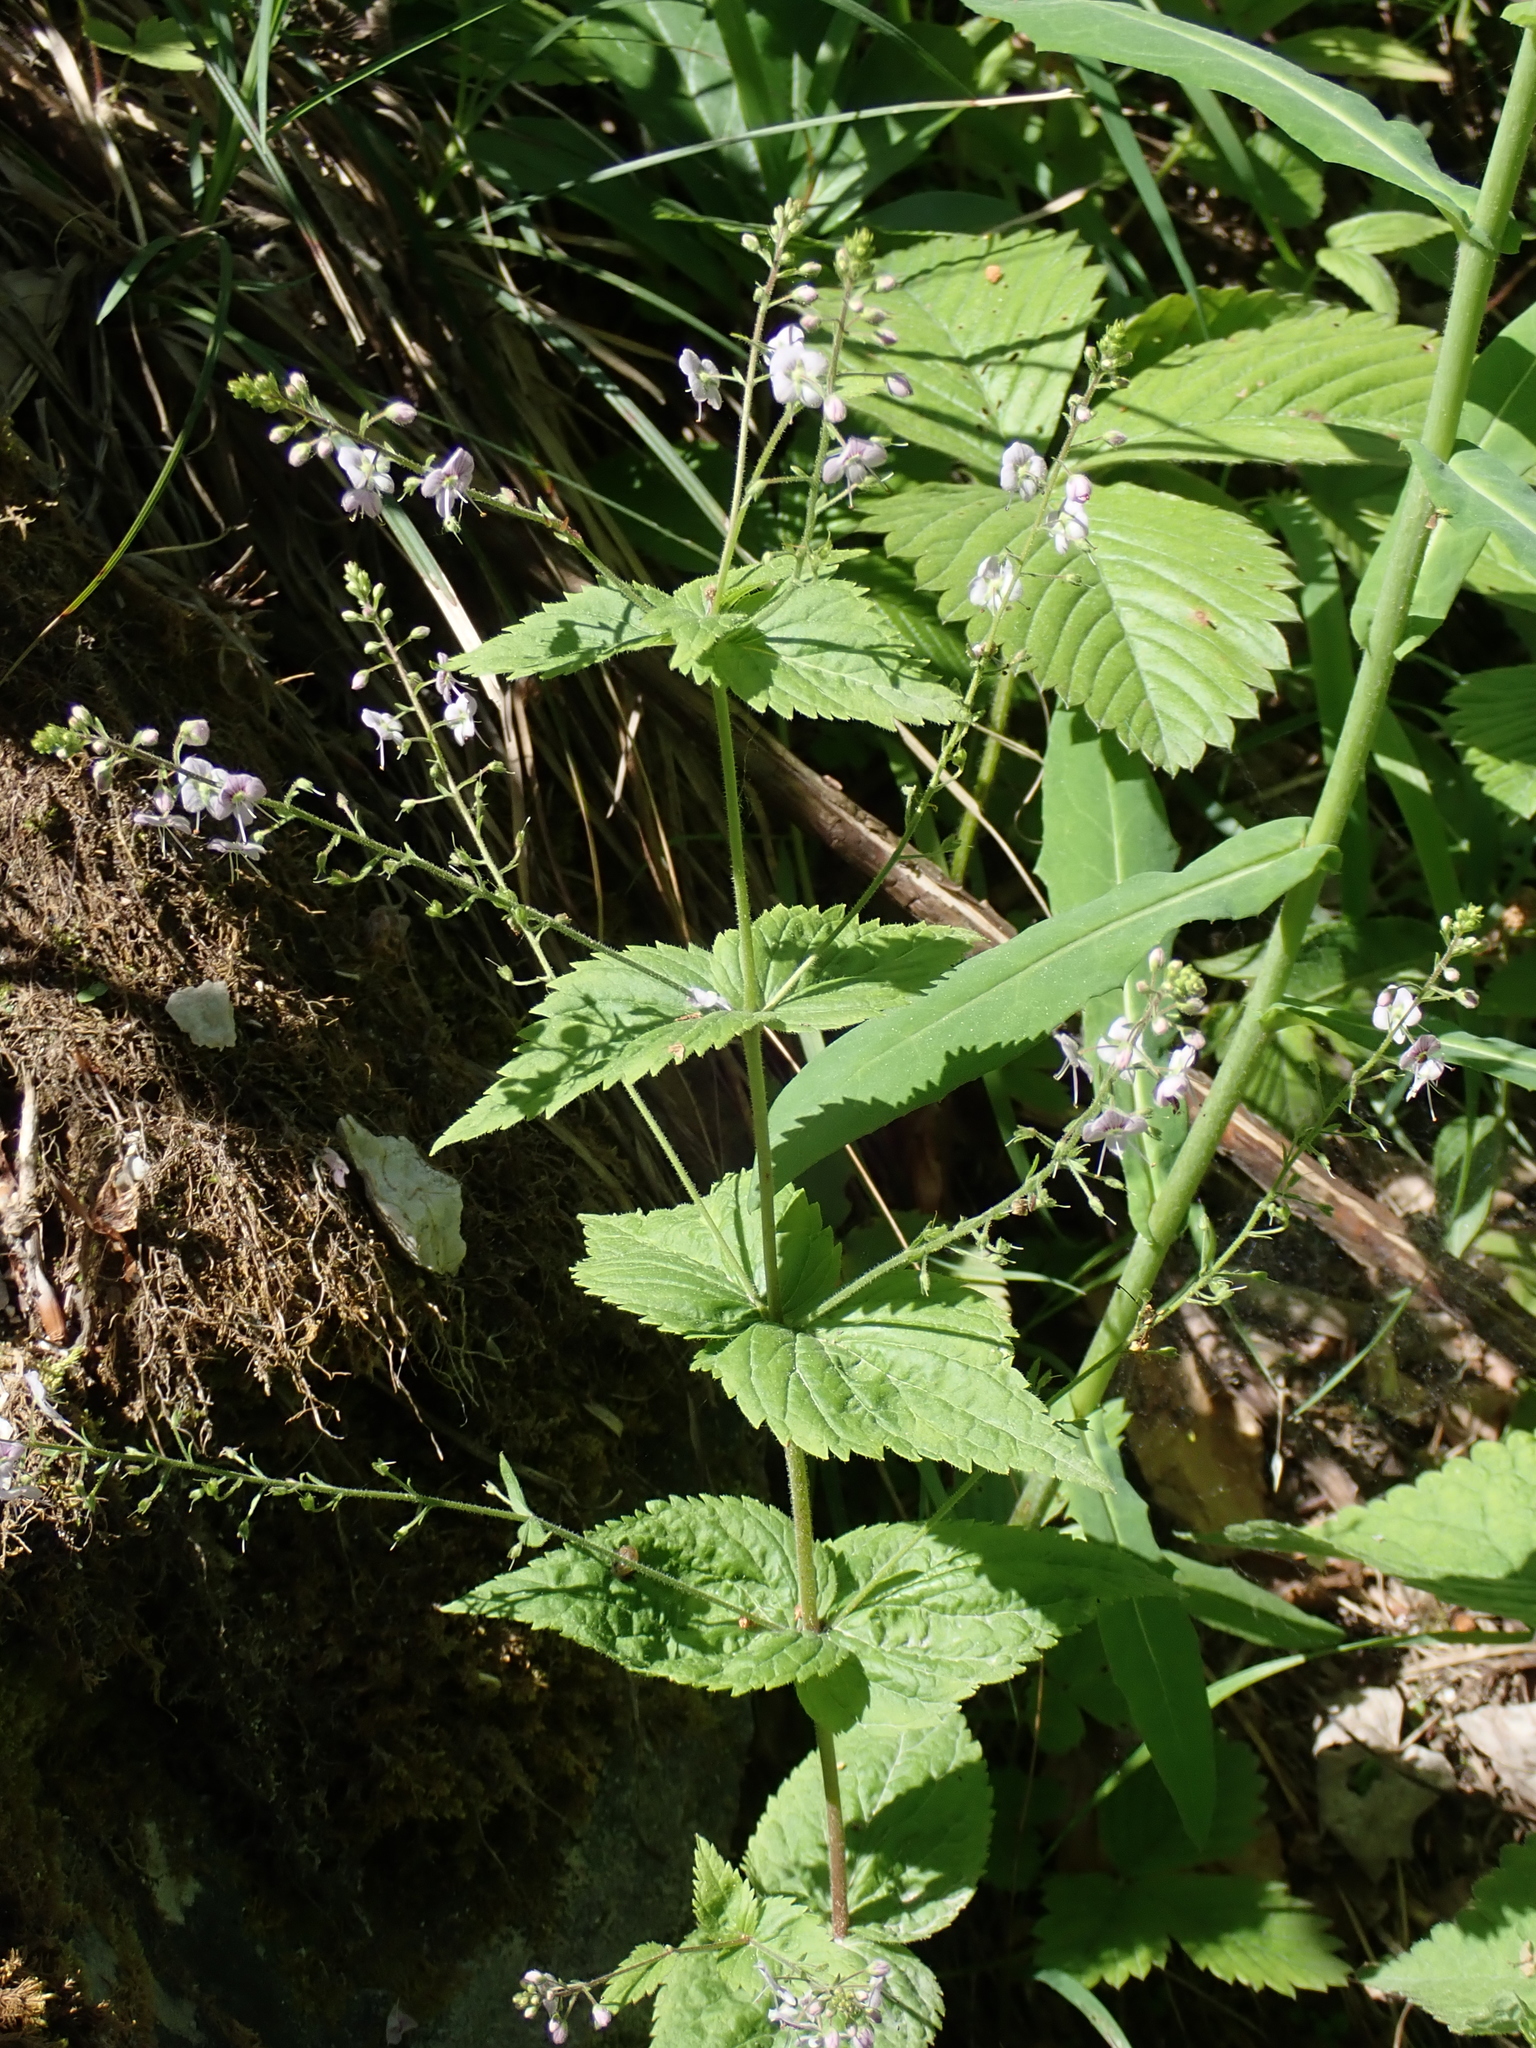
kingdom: Plantae
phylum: Tracheophyta
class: Magnoliopsida
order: Lamiales
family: Plantaginaceae
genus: Veronica
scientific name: Veronica urticifolia
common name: Nettle-leaf speedwell
